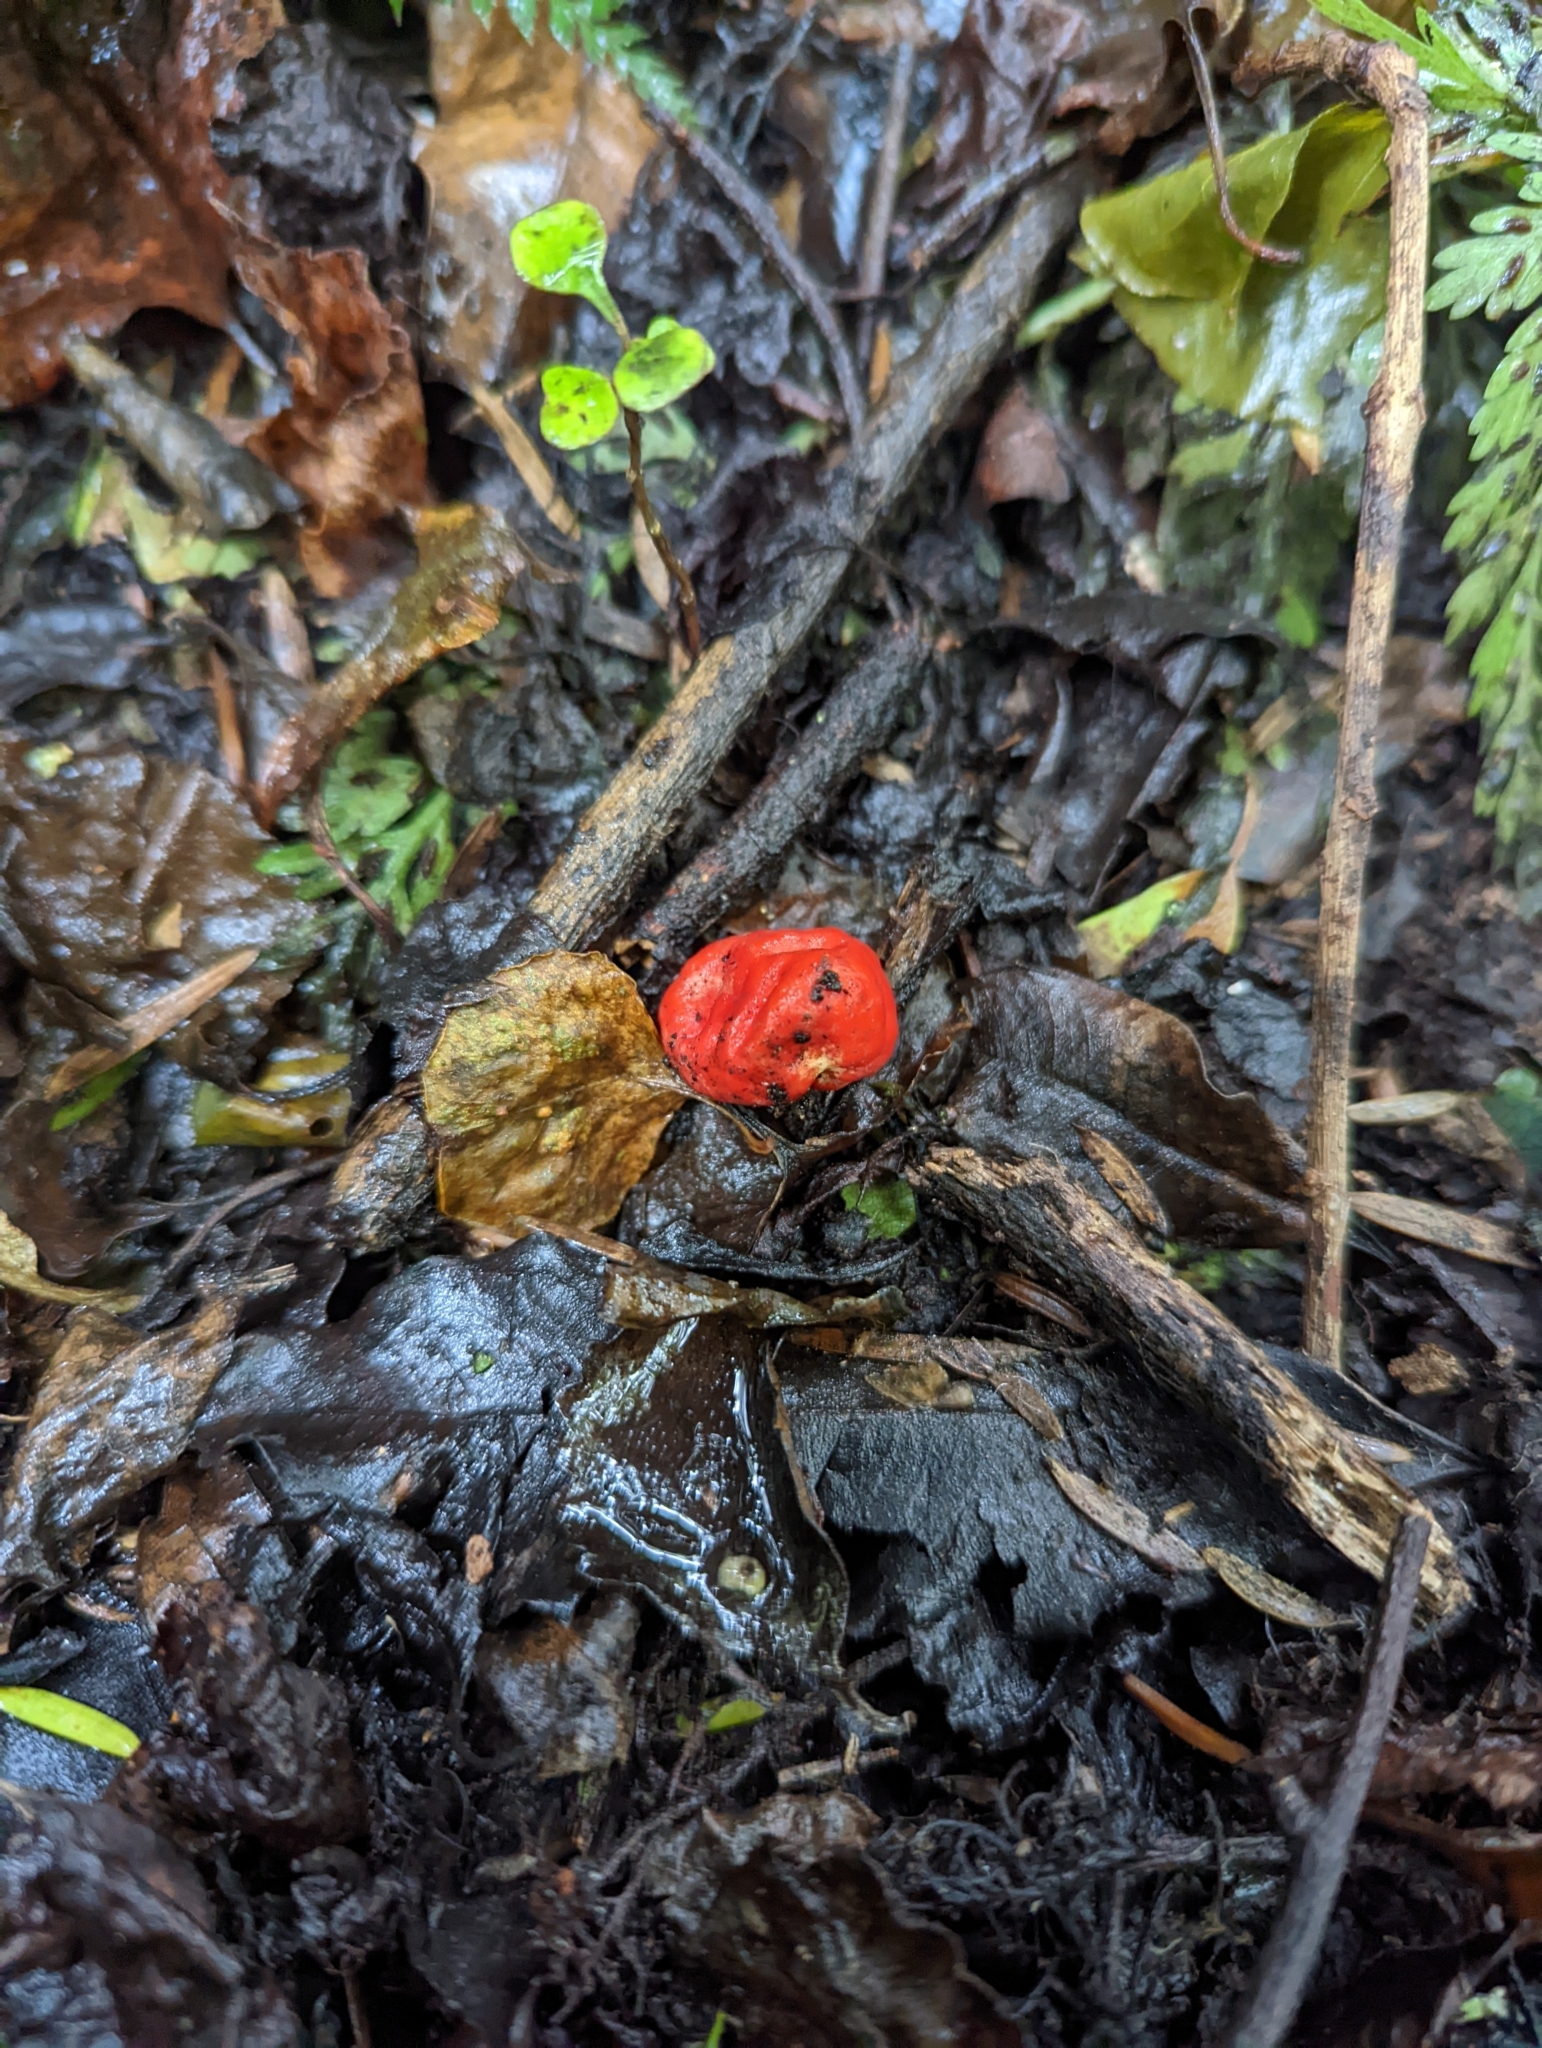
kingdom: Fungi
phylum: Ascomycota
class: Pezizomycetes
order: Pezizales
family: Pyronemataceae
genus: Paurocotylis
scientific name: Paurocotylis pila
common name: Scarlet berry truffle
